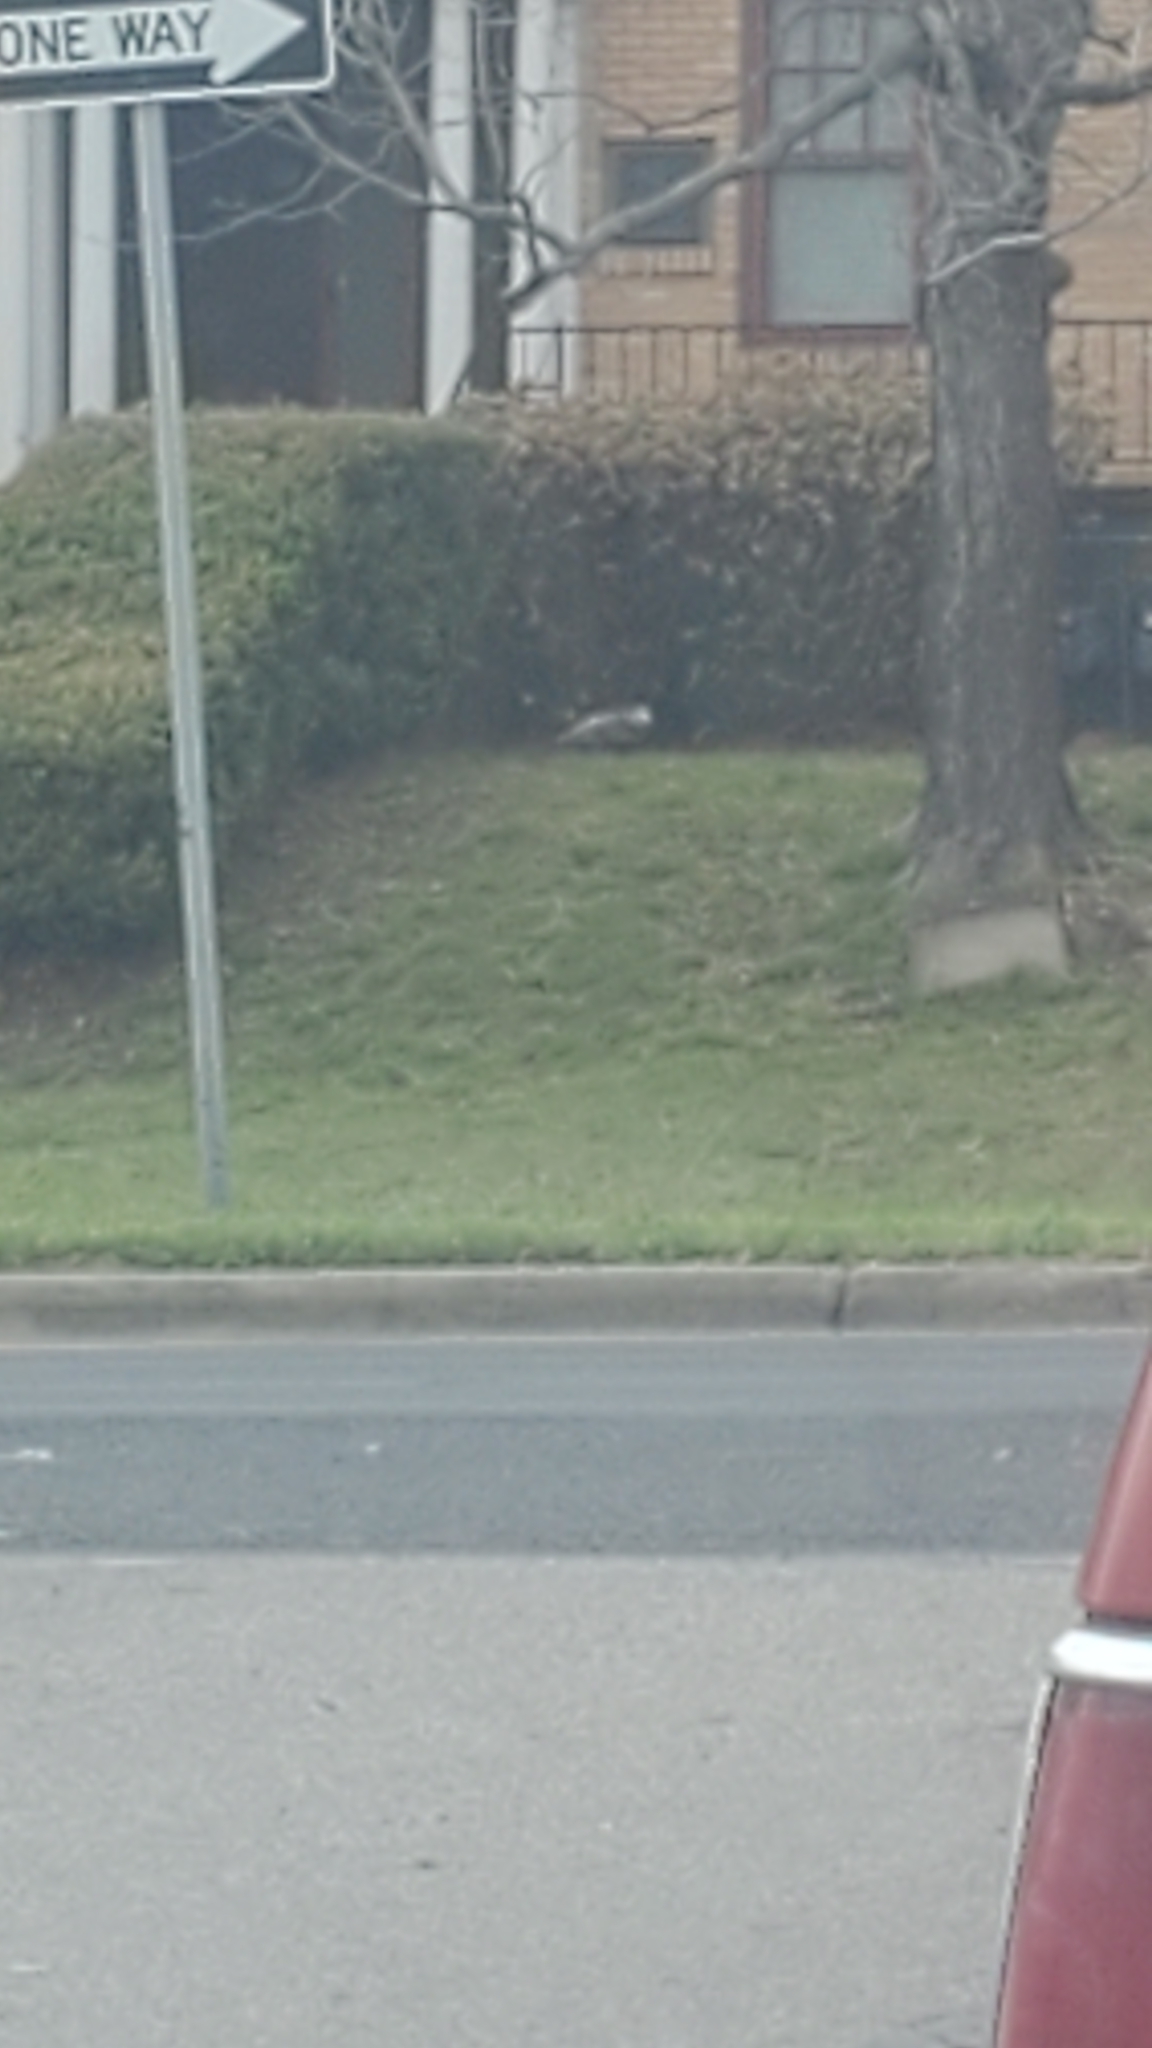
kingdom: Animalia
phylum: Chordata
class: Mammalia
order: Didelphimorphia
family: Didelphidae
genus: Didelphis
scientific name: Didelphis virginiana
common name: Virginia opossum
